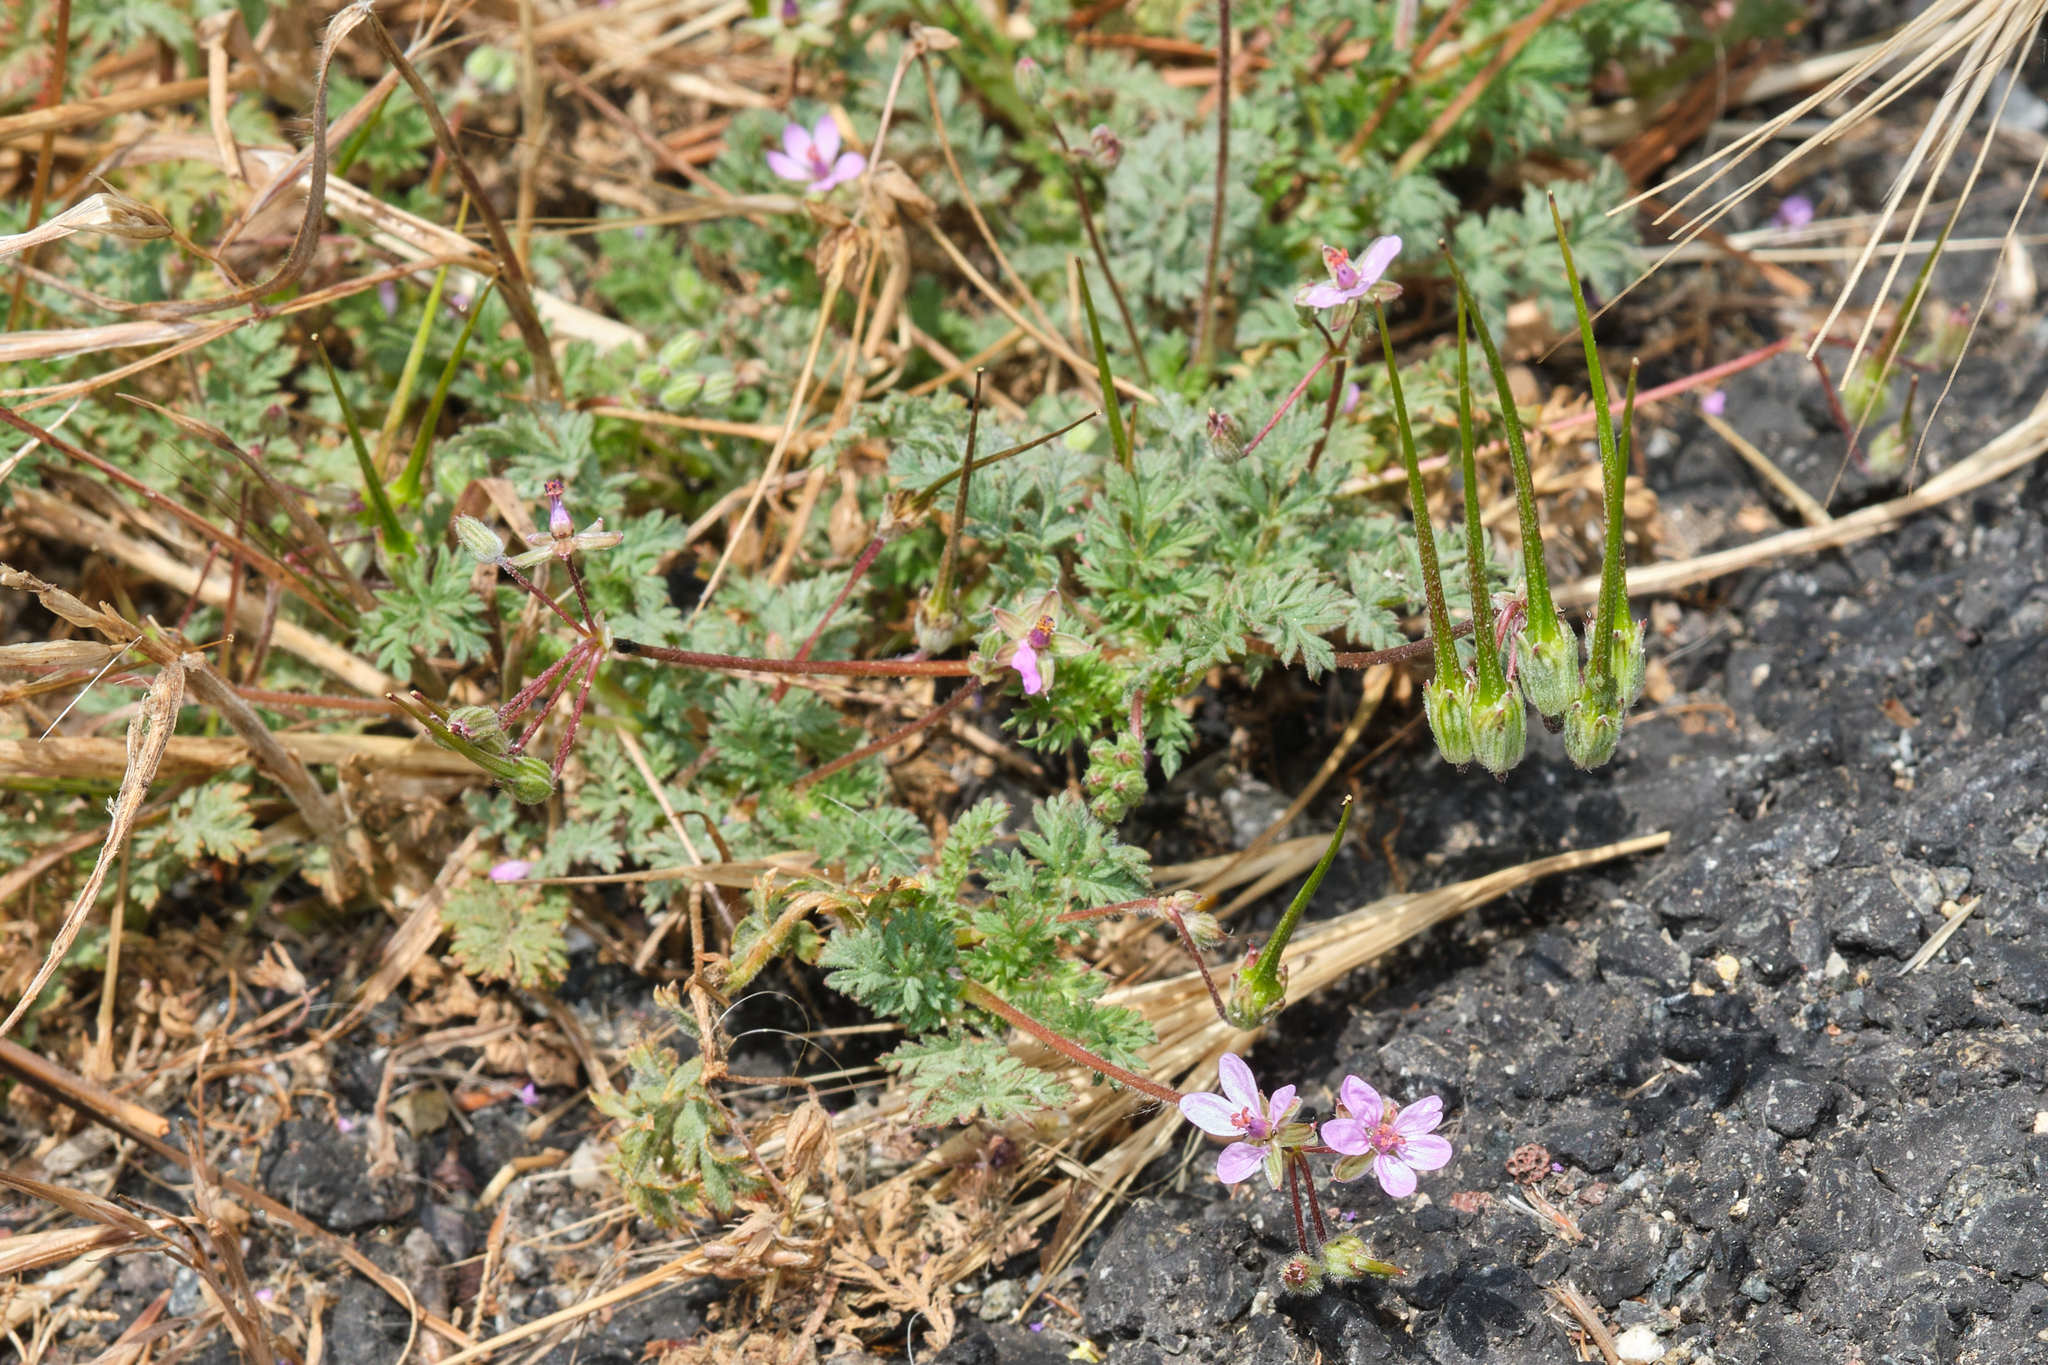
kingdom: Plantae
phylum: Tracheophyta
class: Magnoliopsida
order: Geraniales
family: Geraniaceae
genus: Erodium
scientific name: Erodium cicutarium
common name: Common stork's-bill
